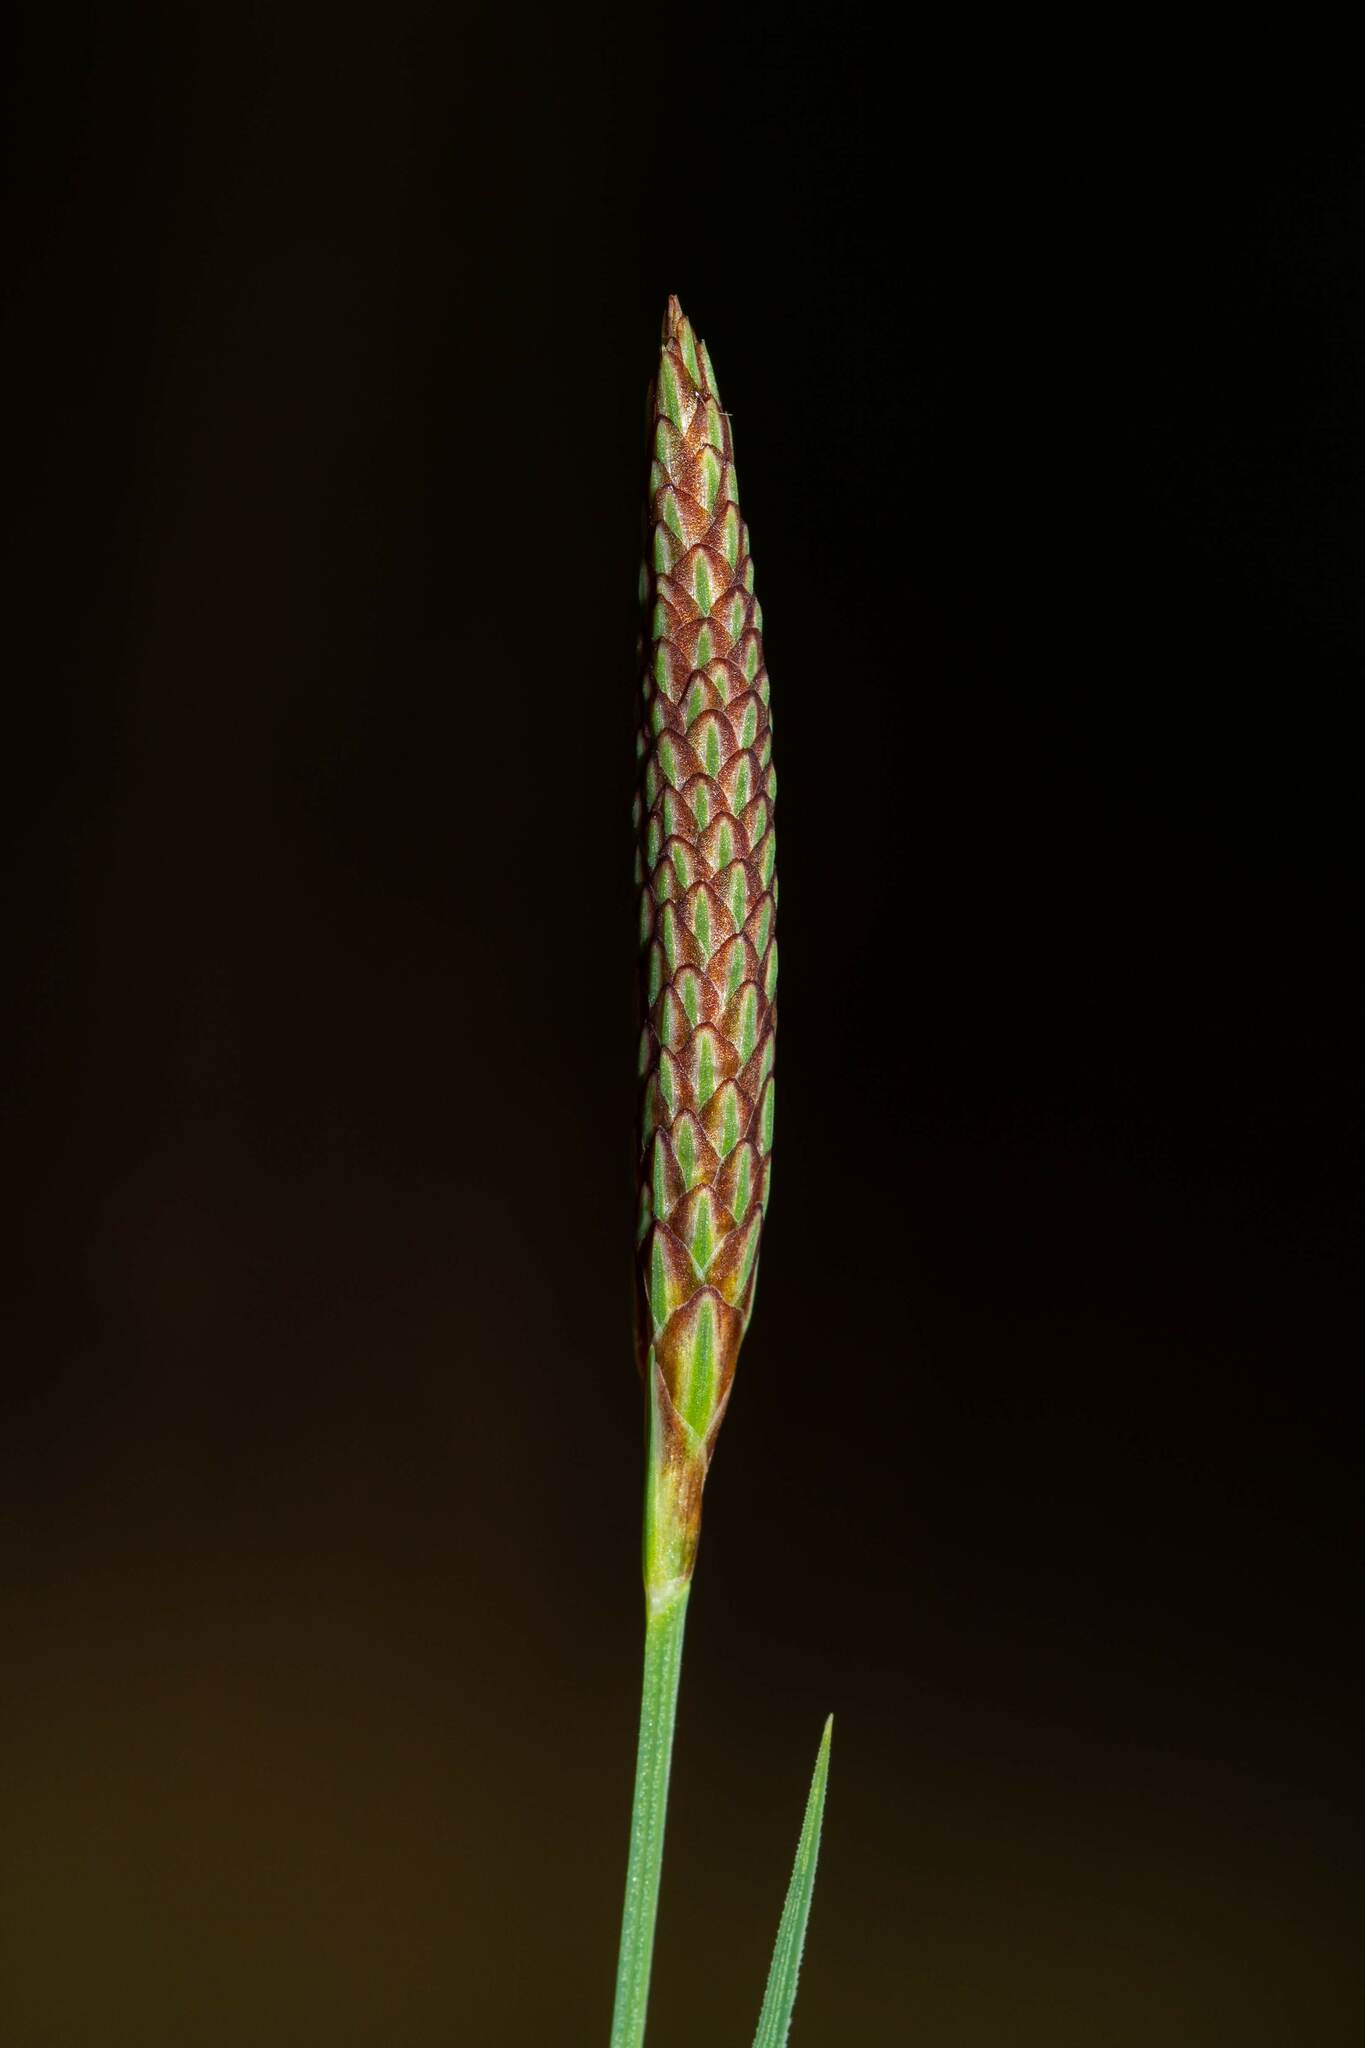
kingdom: Plantae
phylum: Tracheophyta
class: Liliopsida
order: Poales
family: Cyperaceae
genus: Carex
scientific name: Carex meadii
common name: Mead's sedge
